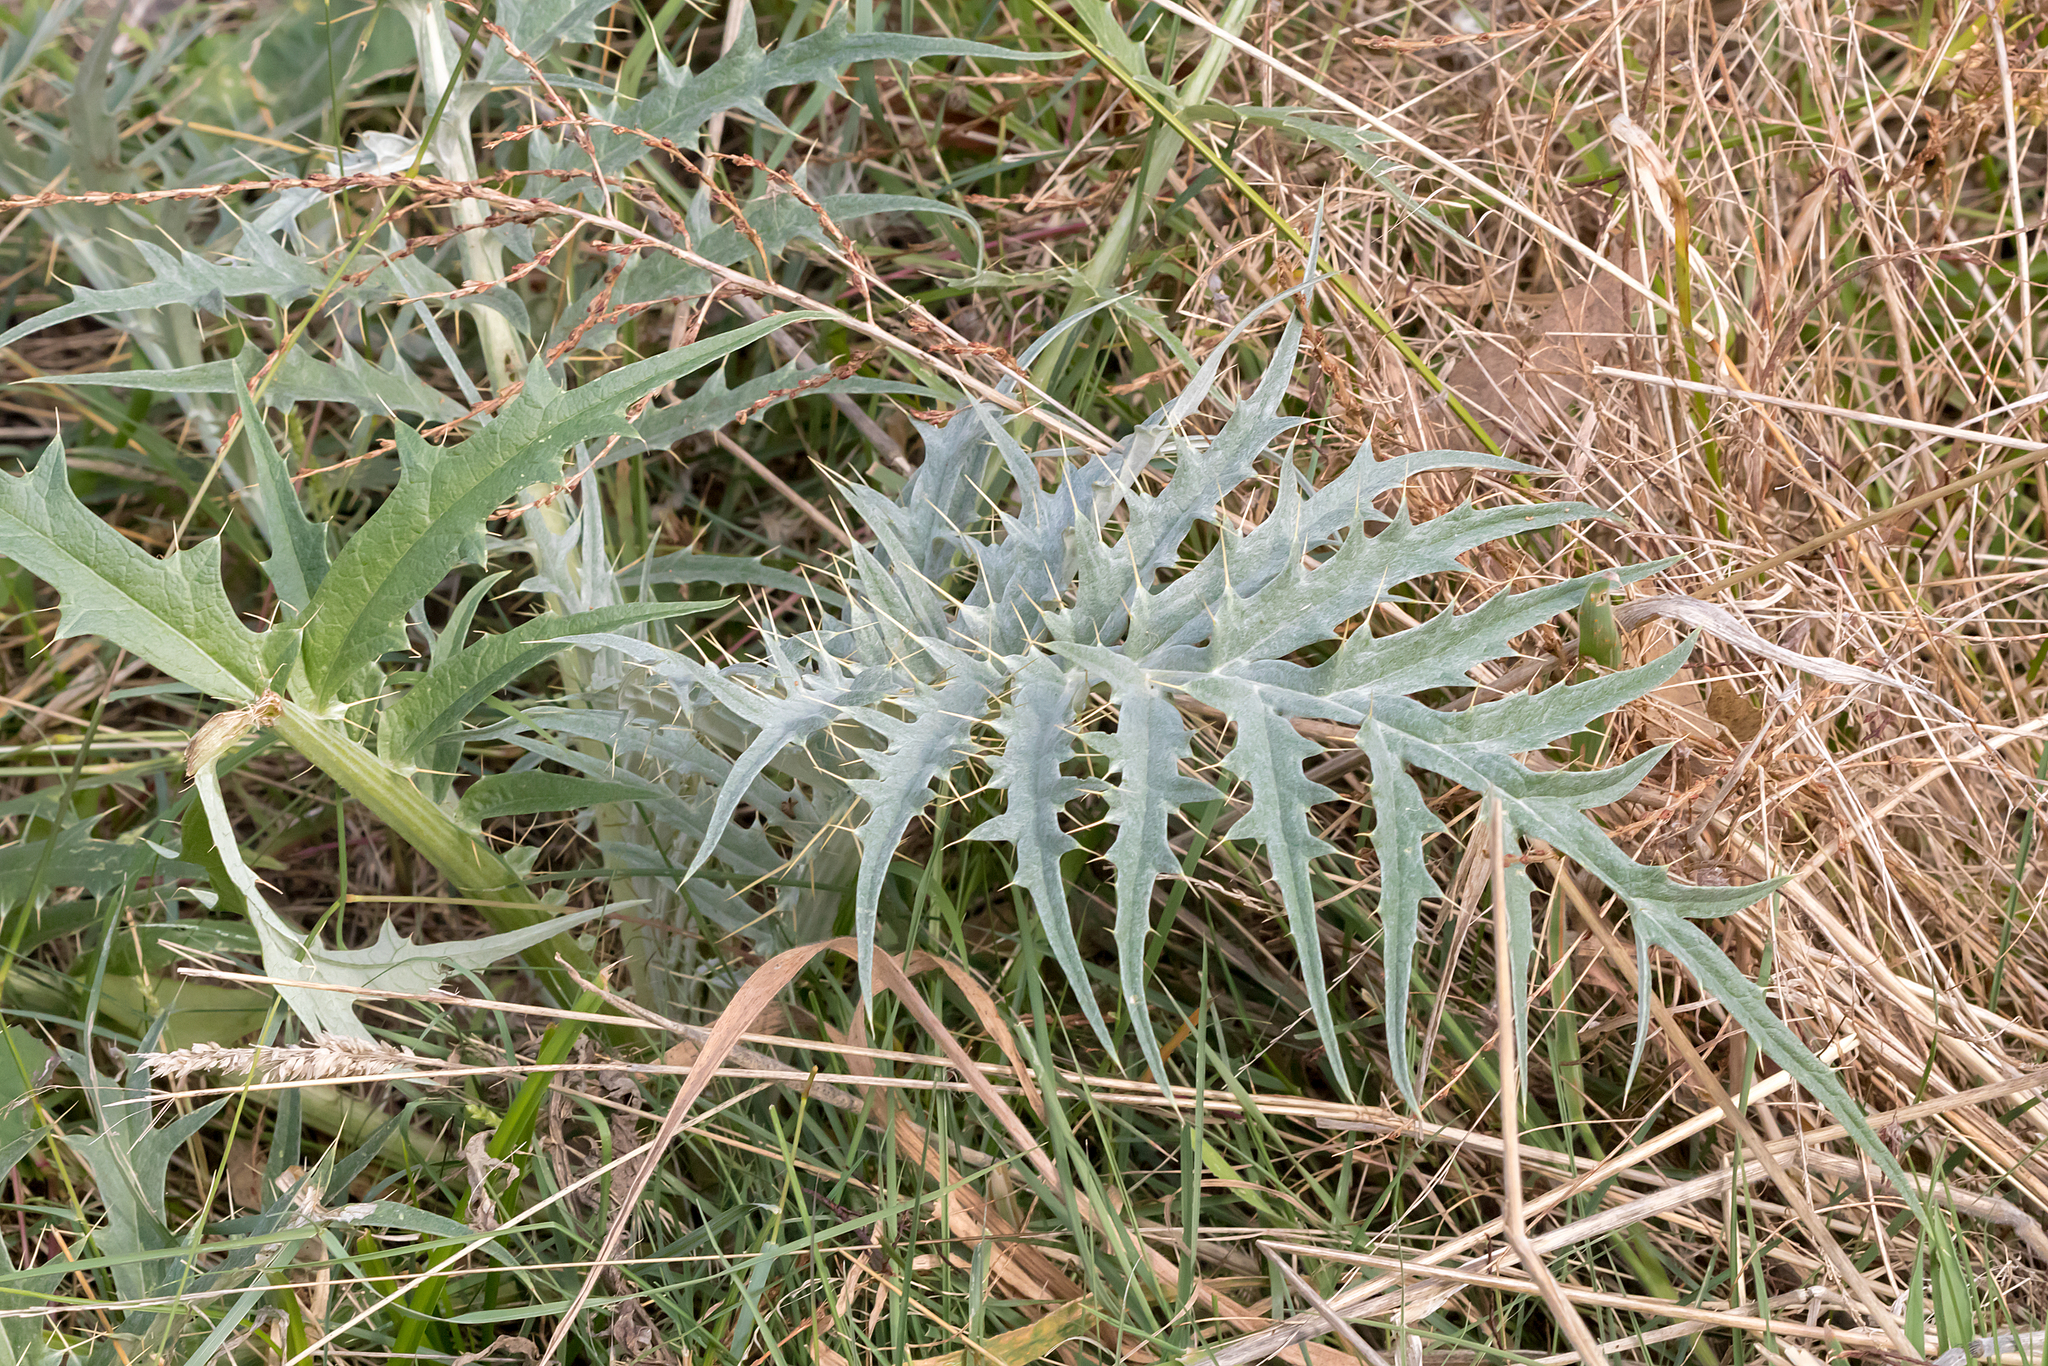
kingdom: Plantae
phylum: Tracheophyta
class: Magnoliopsida
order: Asterales
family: Asteraceae
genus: Cynara
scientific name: Cynara cardunculus
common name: Globe artichoke
